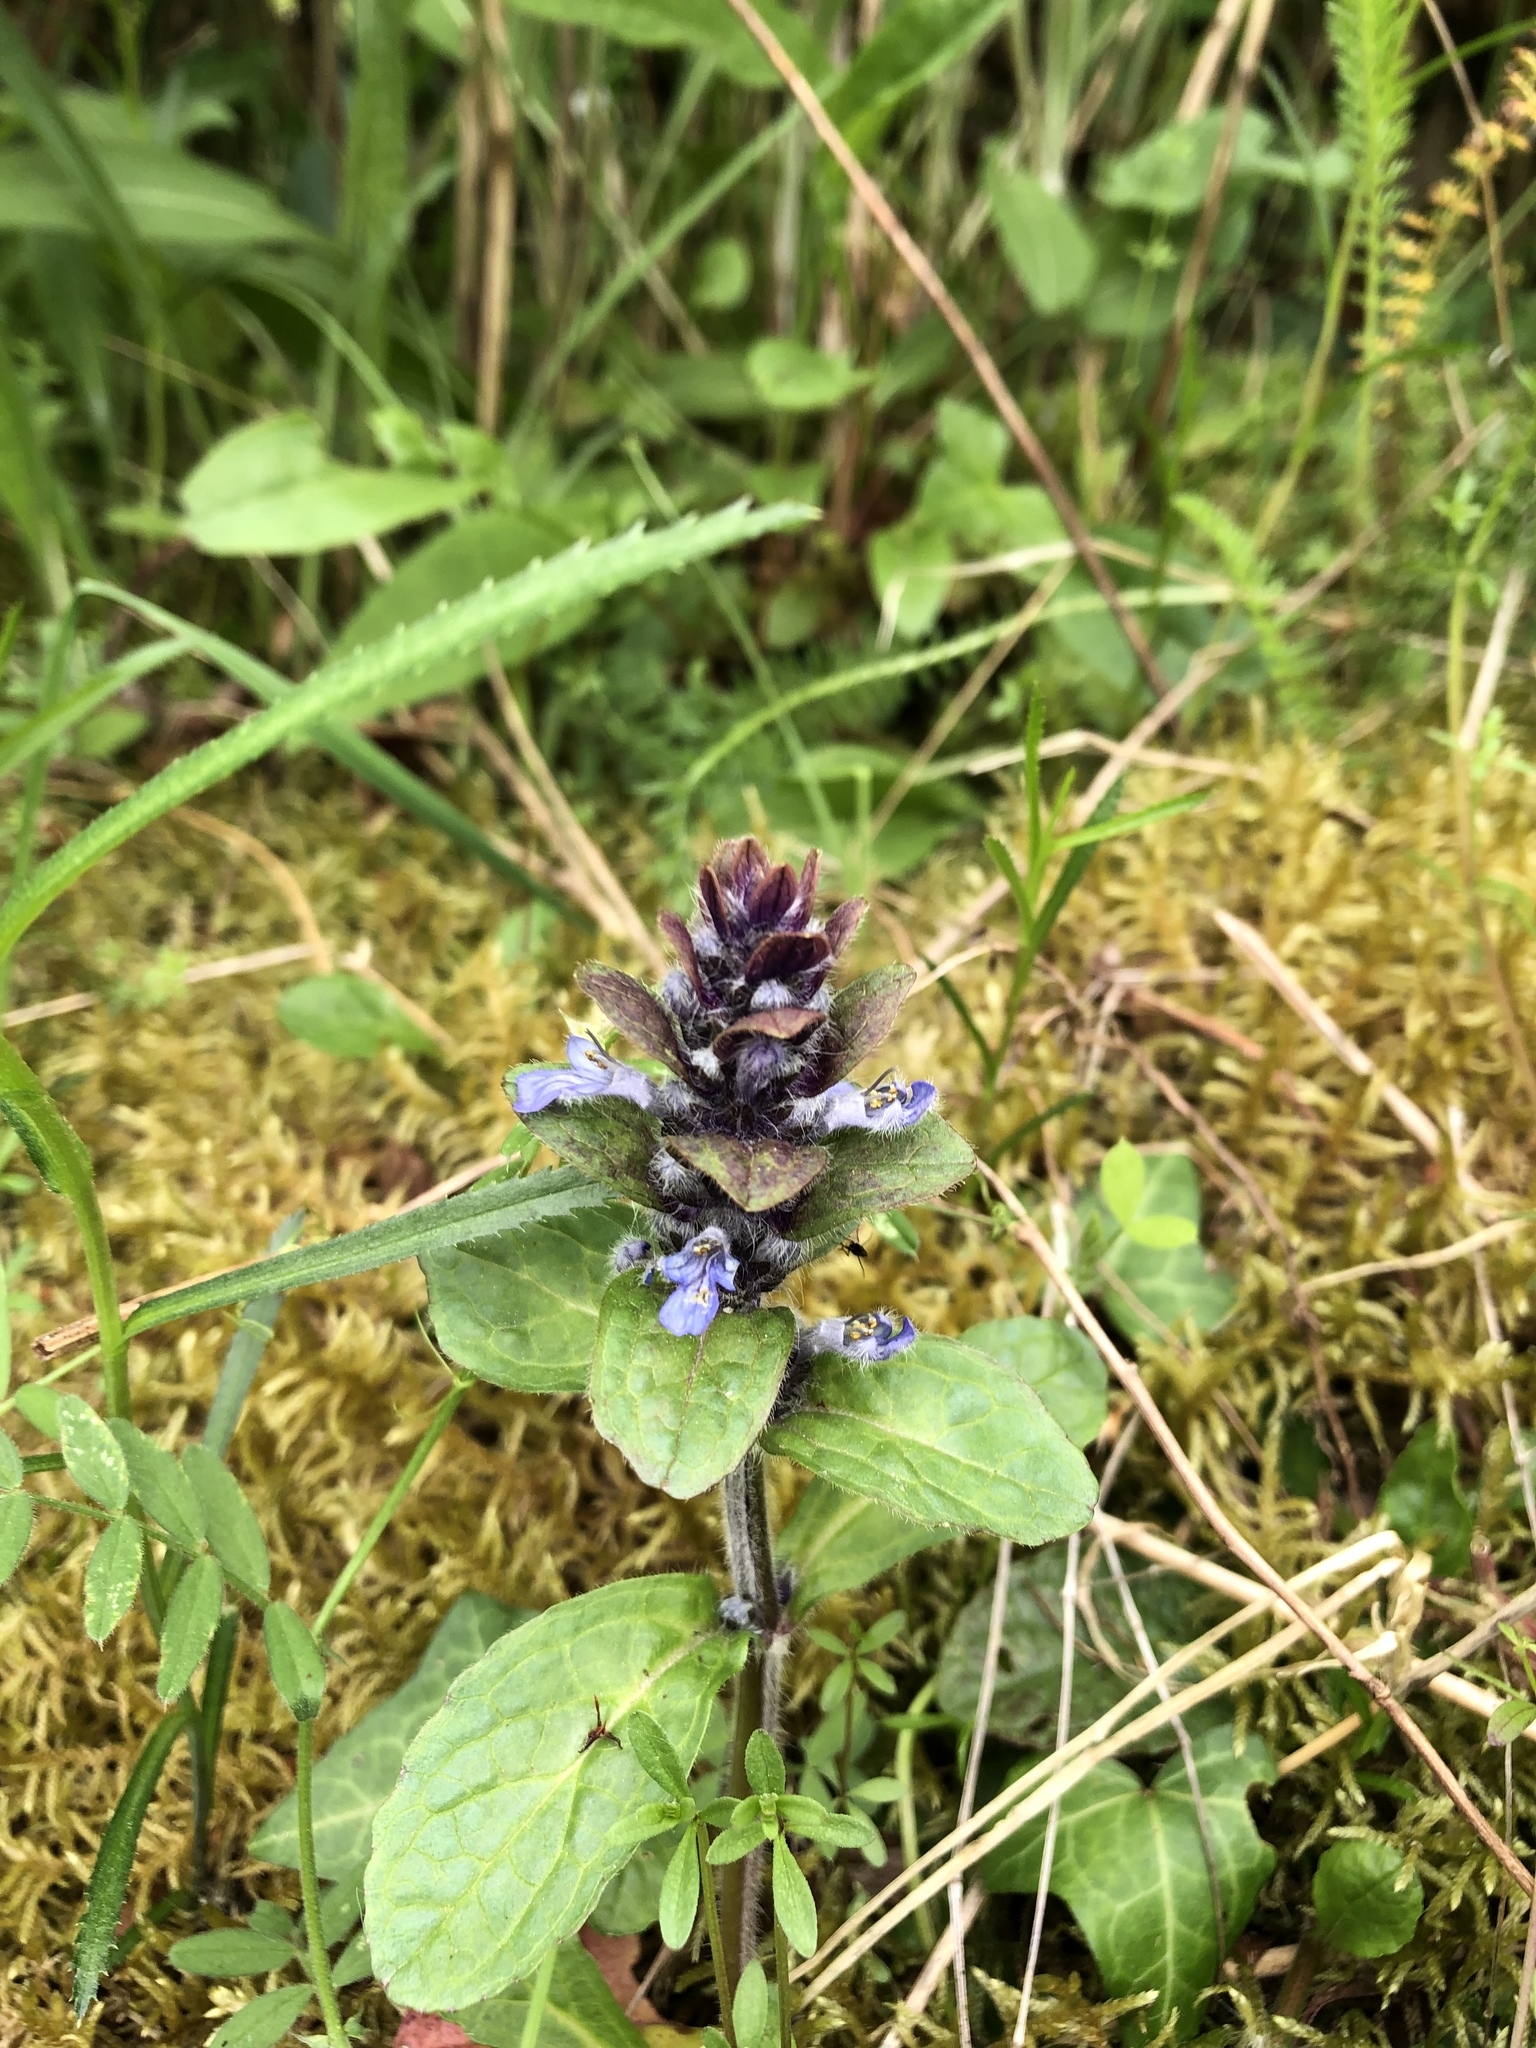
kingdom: Plantae
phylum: Tracheophyta
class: Magnoliopsida
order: Lamiales
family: Lamiaceae
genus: Ajuga
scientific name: Ajuga reptans
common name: Bugle
